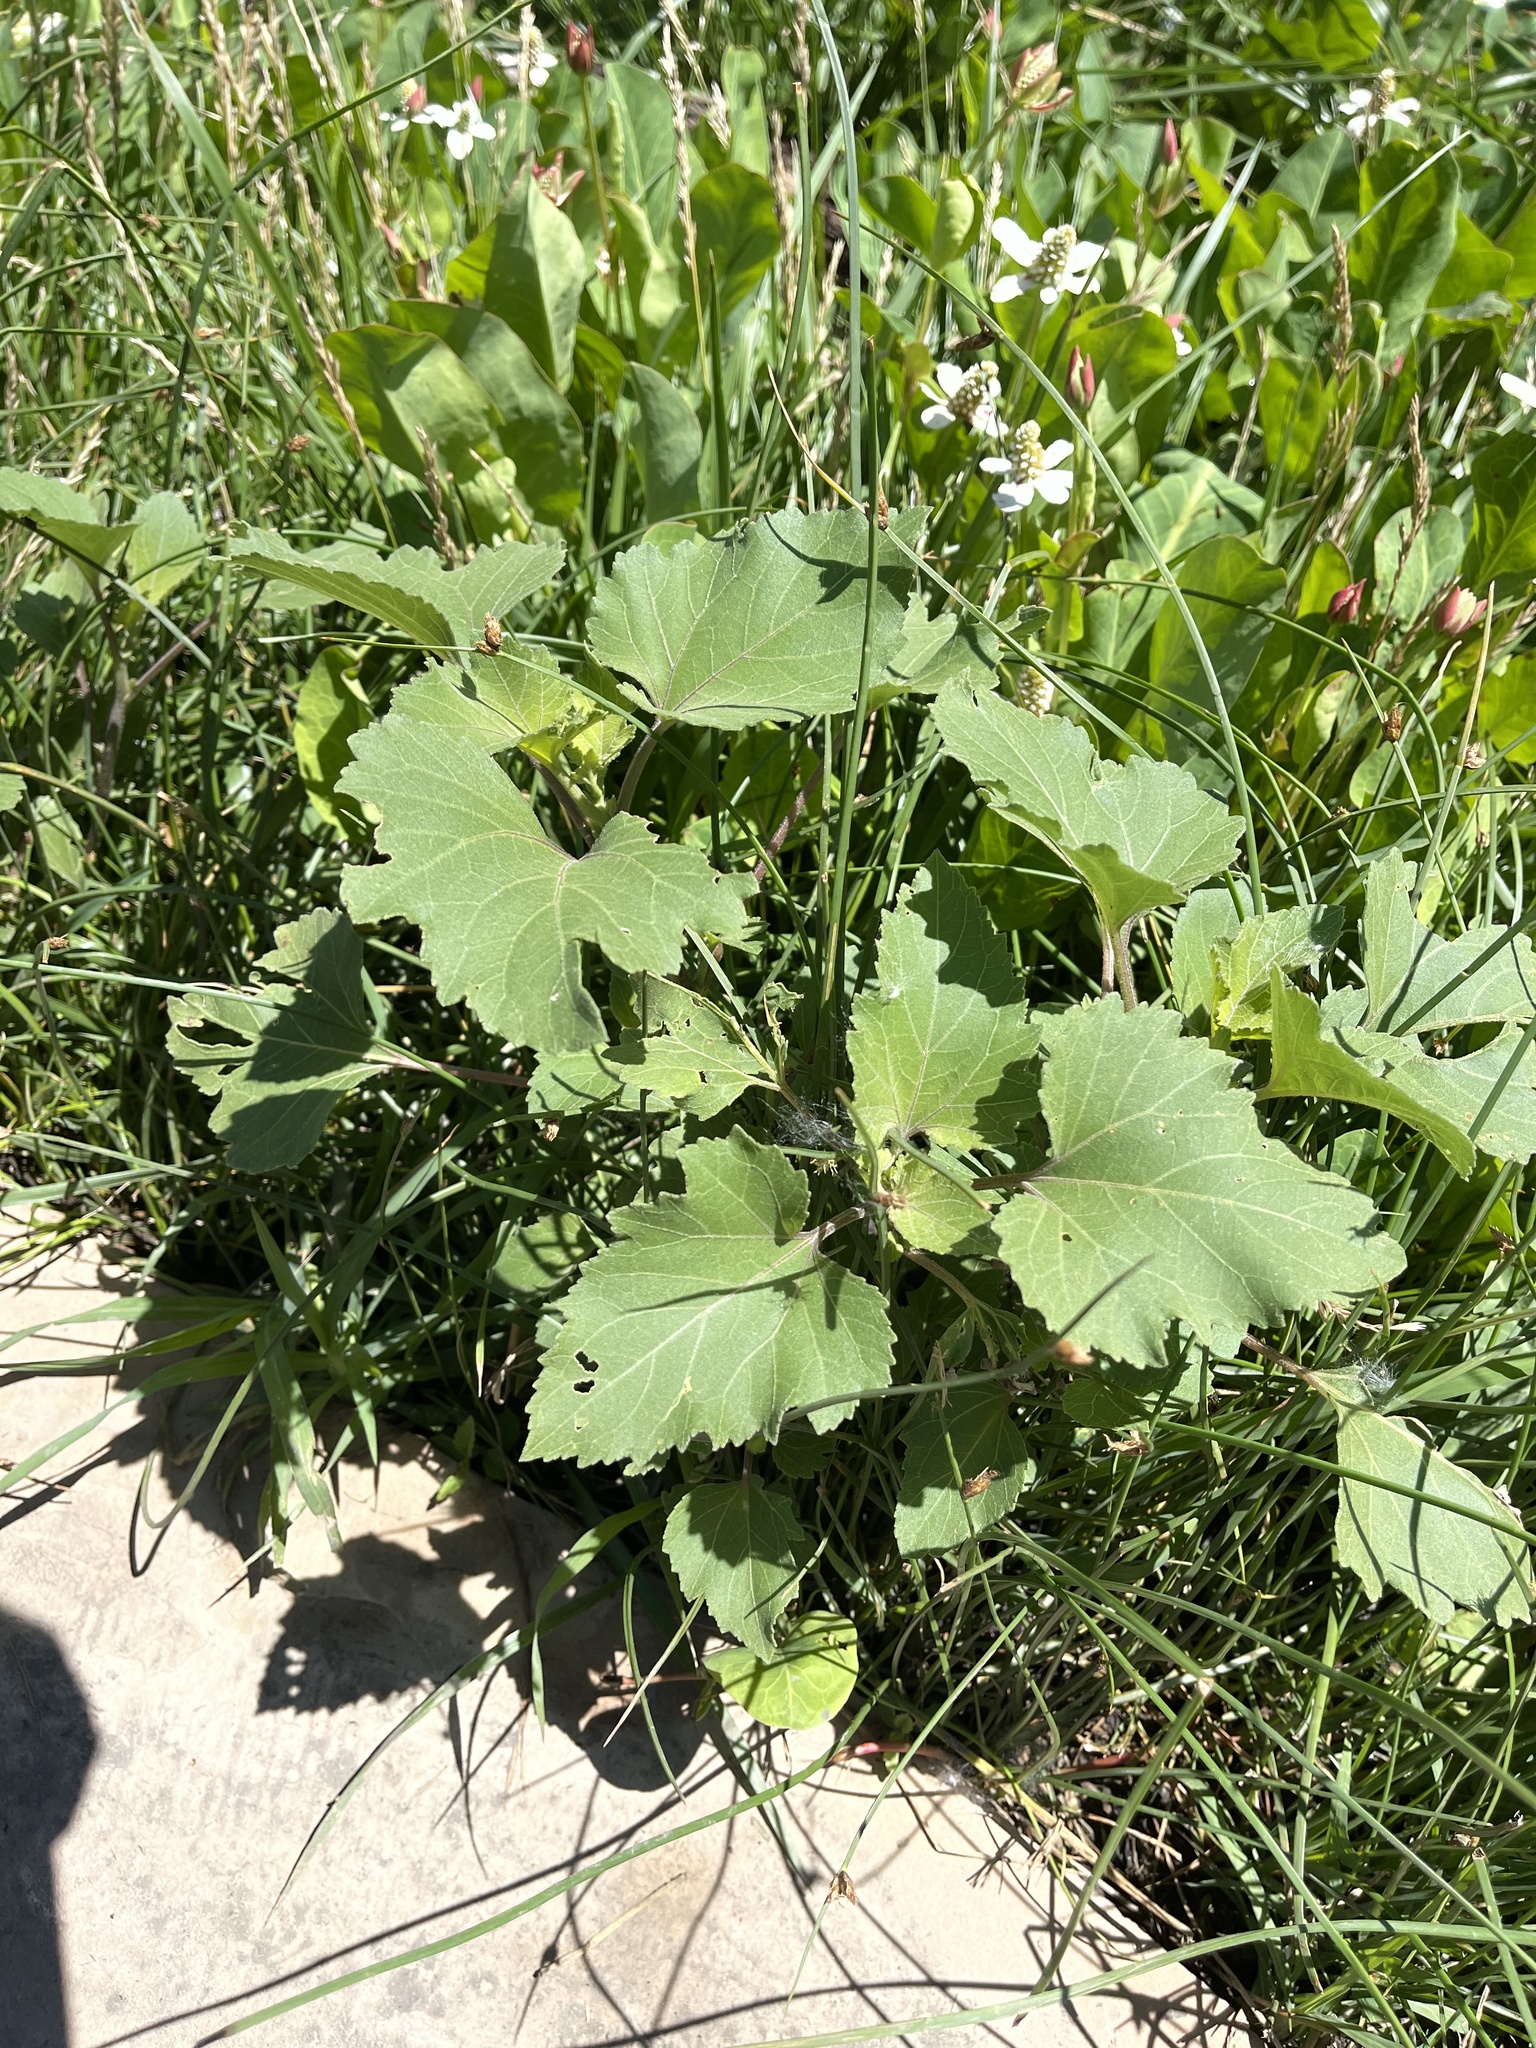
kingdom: Plantae
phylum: Tracheophyta
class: Magnoliopsida
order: Asterales
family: Asteraceae
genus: Xanthium
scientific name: Xanthium strumarium
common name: Rough cocklebur
